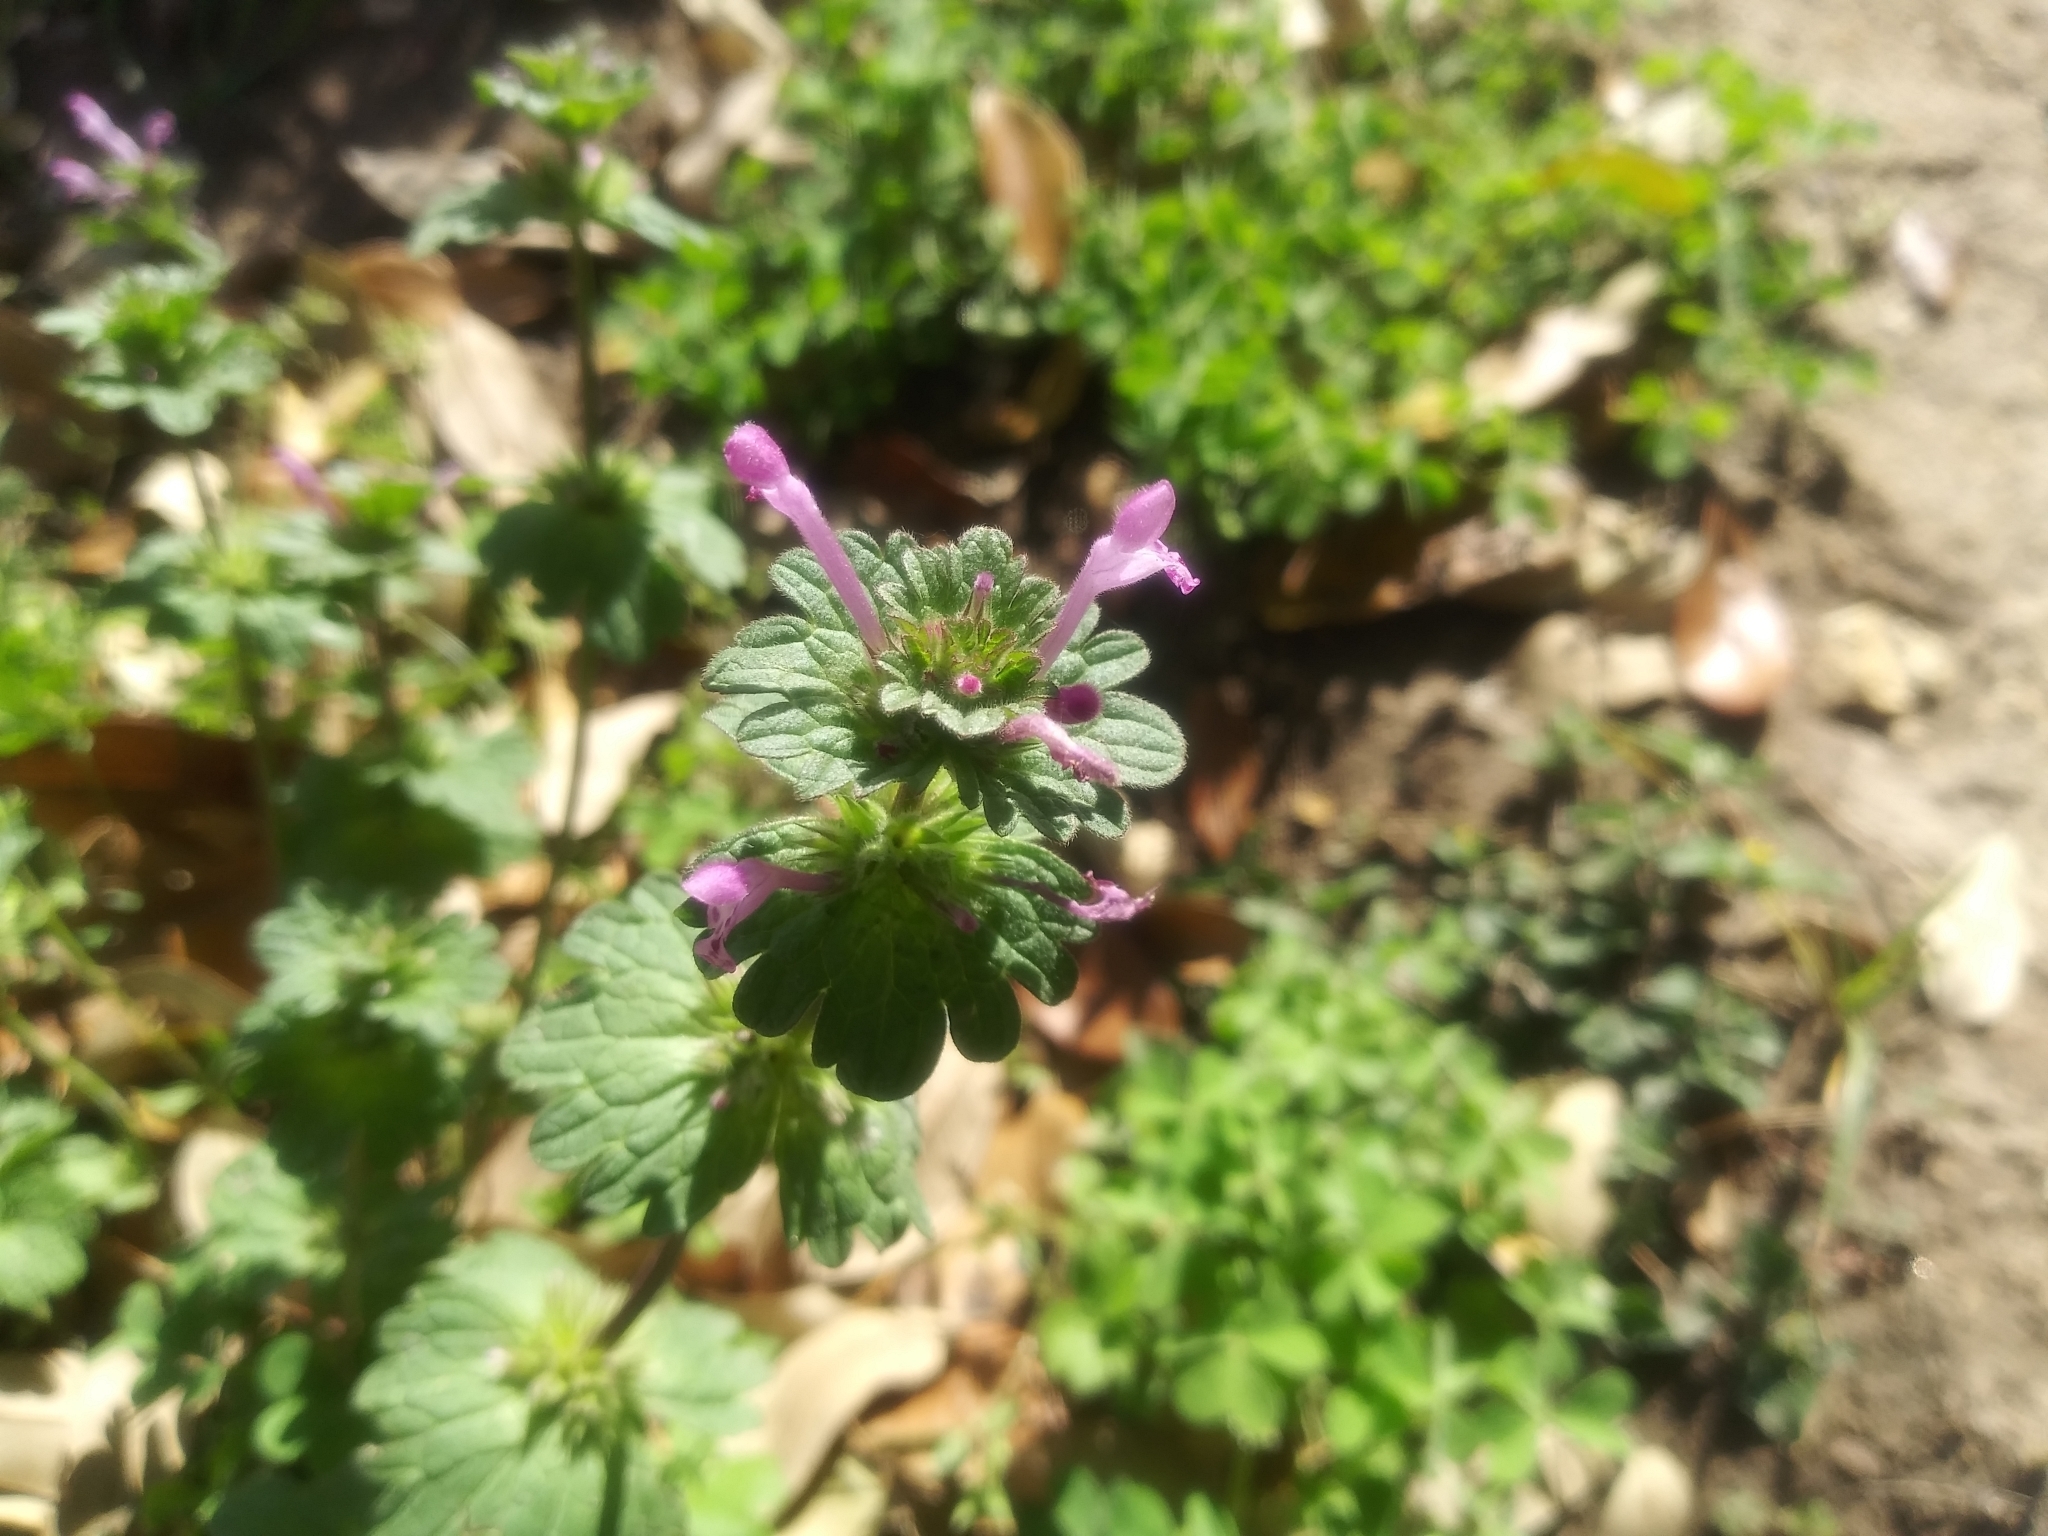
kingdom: Plantae
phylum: Tracheophyta
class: Magnoliopsida
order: Lamiales
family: Lamiaceae
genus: Lamium
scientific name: Lamium amplexicaule
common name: Henbit dead-nettle
